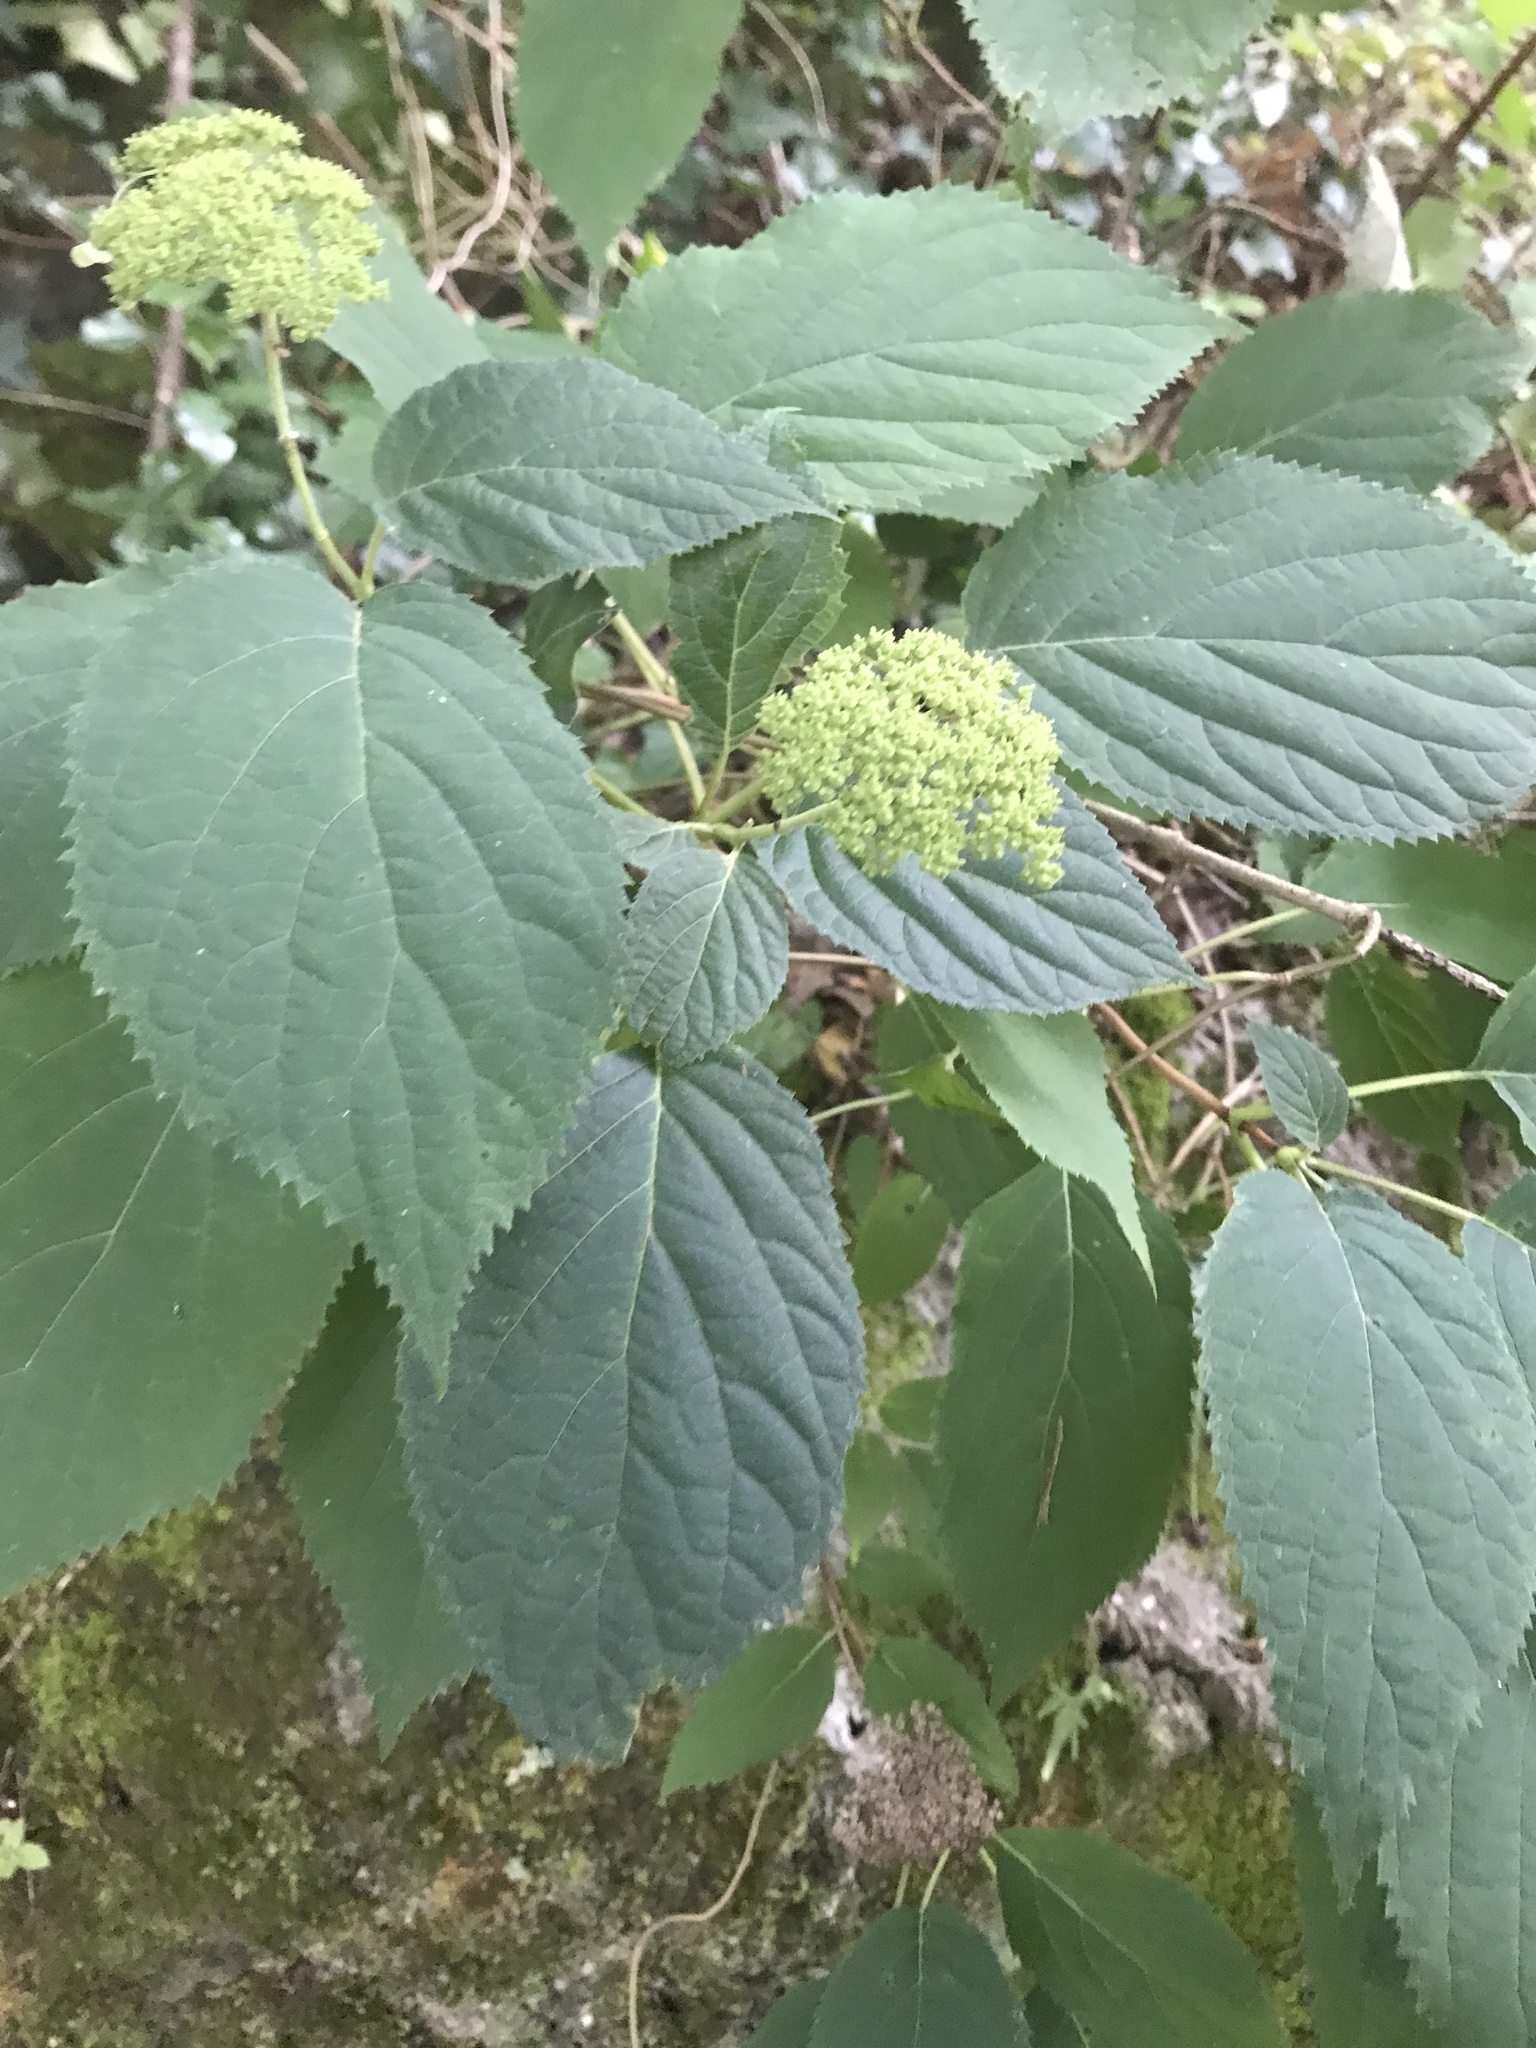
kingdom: Plantae
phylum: Tracheophyta
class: Magnoliopsida
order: Cornales
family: Hydrangeaceae
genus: Hydrangea
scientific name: Hydrangea arborescens
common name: Sevenbark
